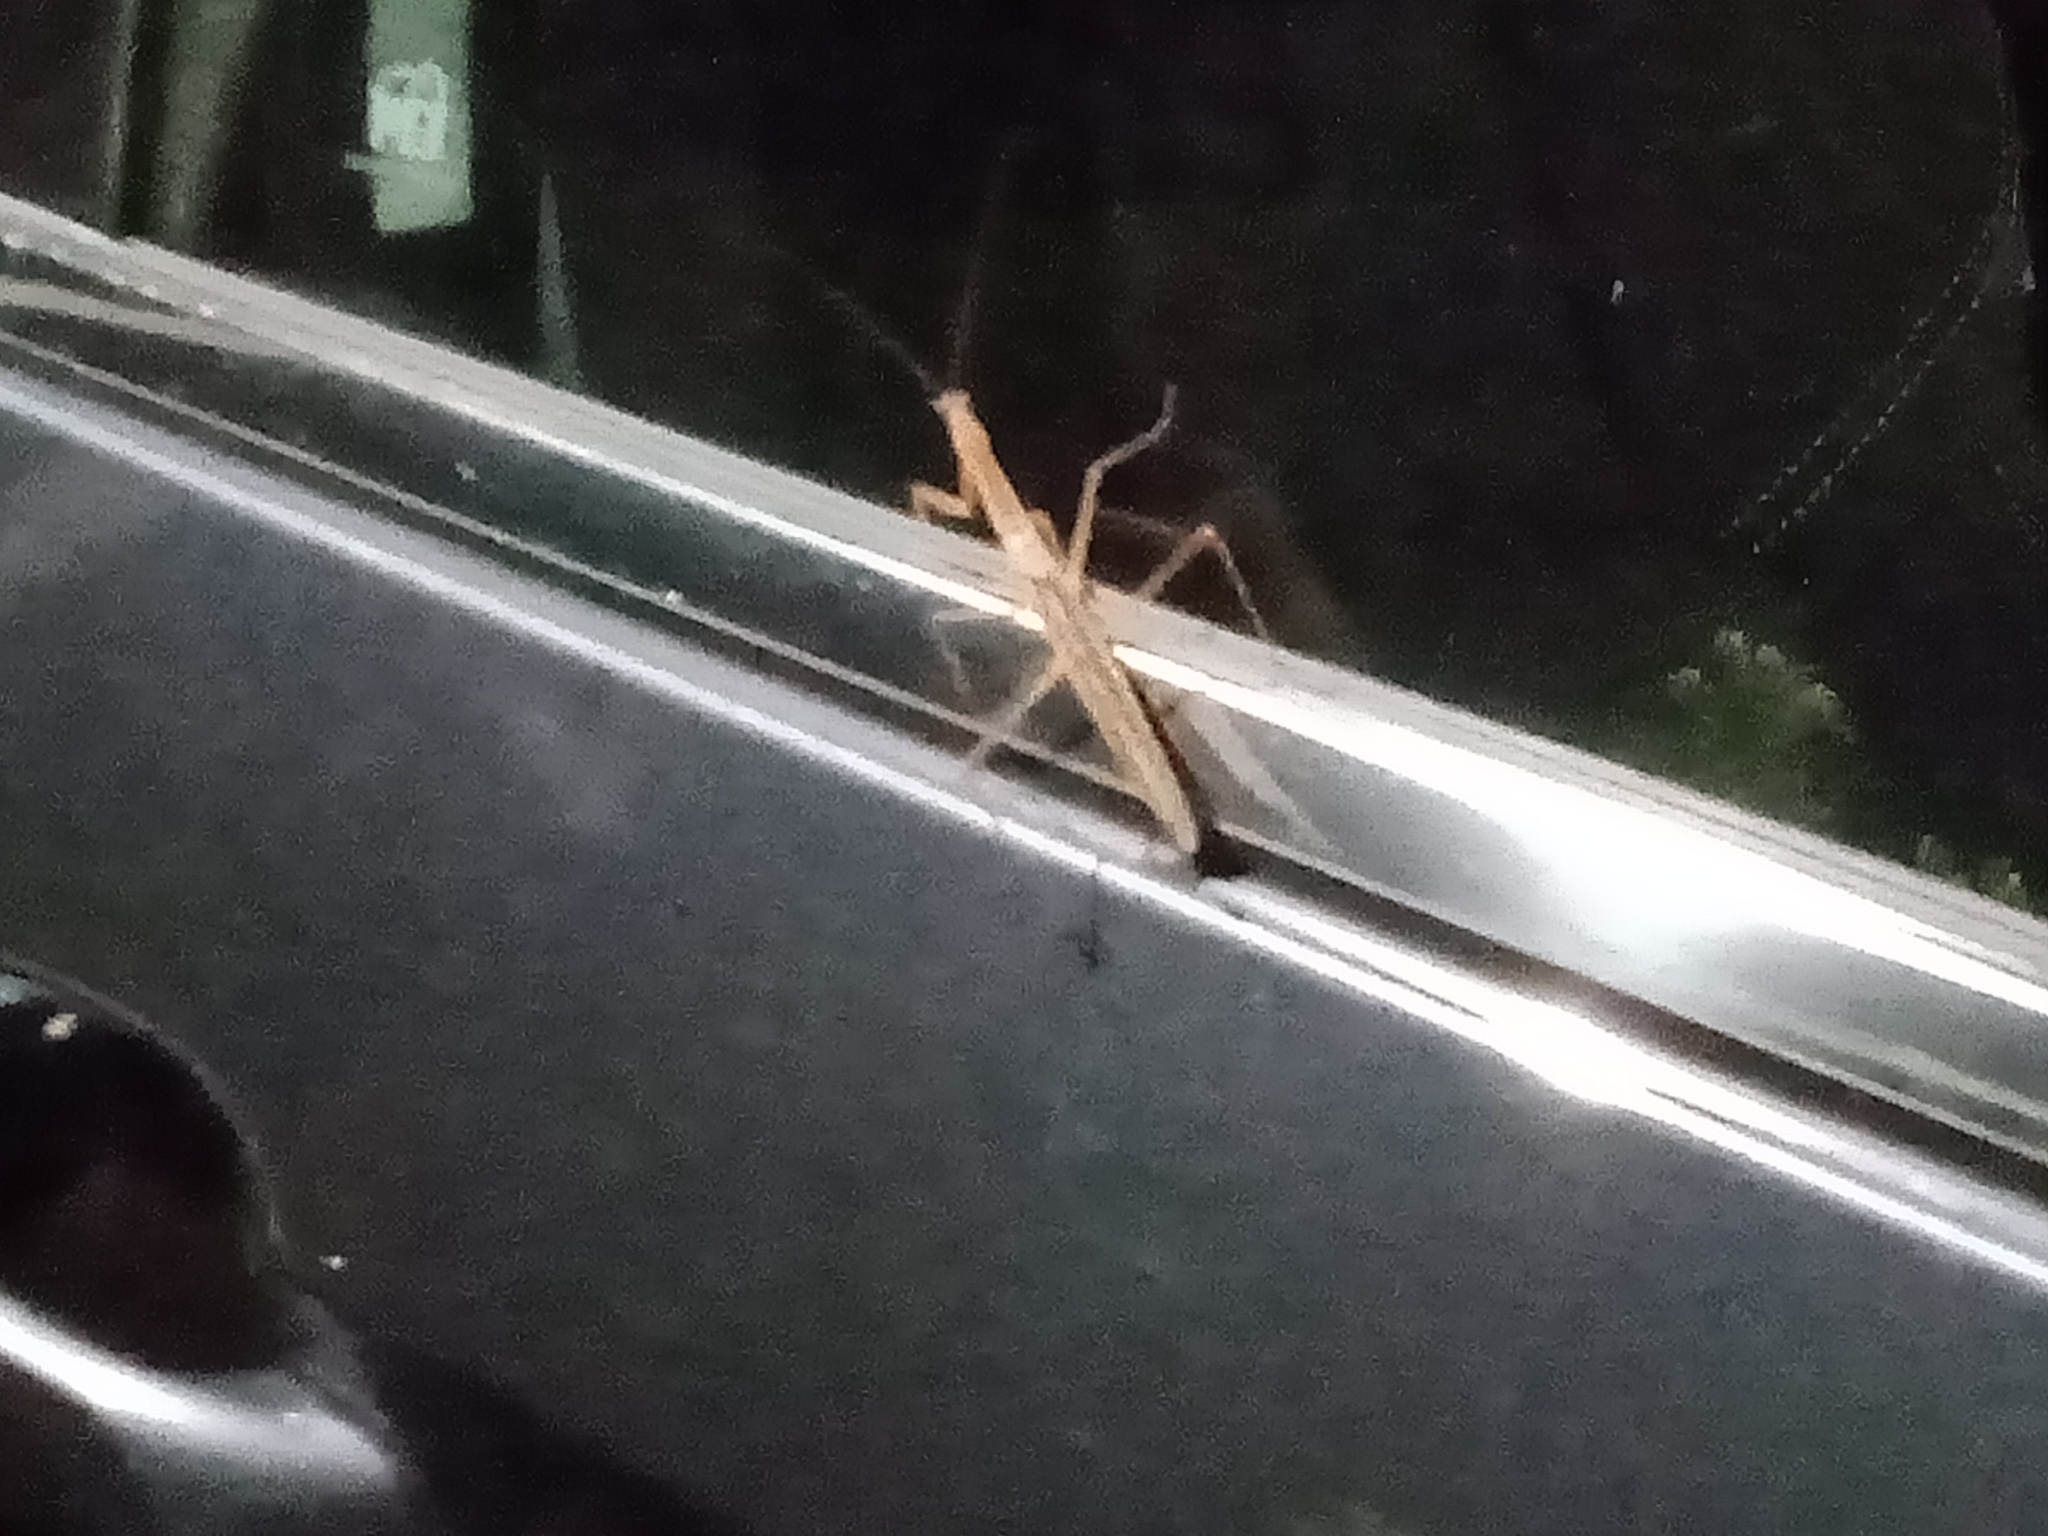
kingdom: Animalia
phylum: Arthropoda
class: Insecta
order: Mantodea
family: Mantidae
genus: Tenodera
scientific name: Tenodera australasiae
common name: Purple-winged mantis
